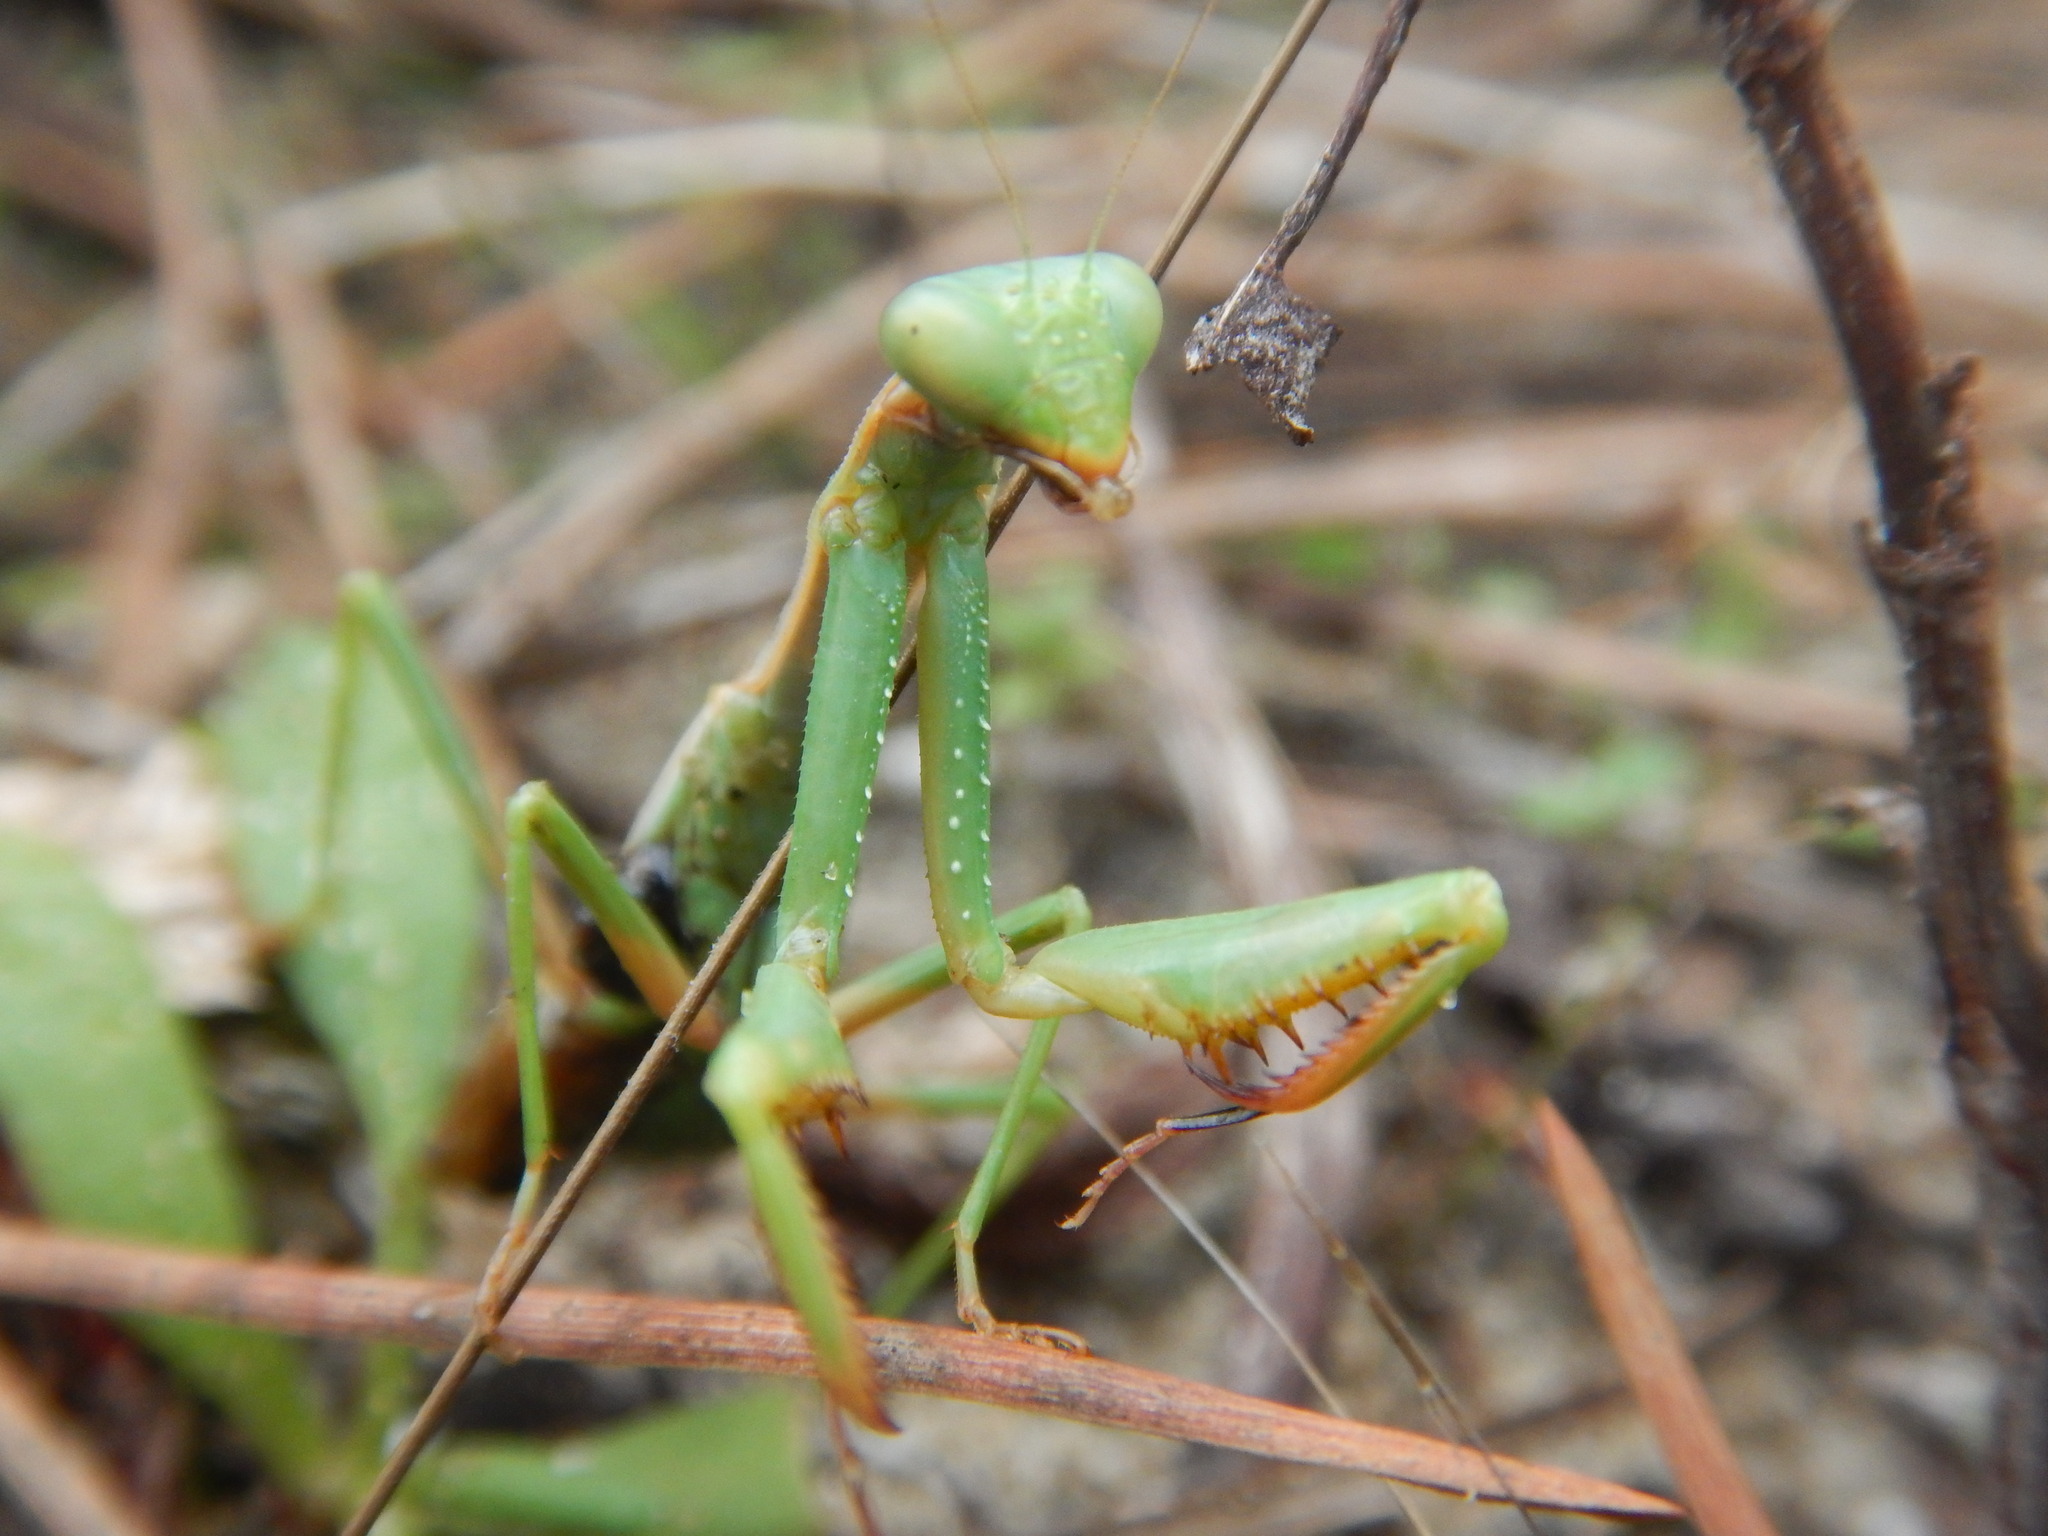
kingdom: Animalia
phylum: Arthropoda
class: Insecta
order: Mantodea
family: Eremiaphilidae
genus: Iris
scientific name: Iris oratoria
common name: Mediterranean mantis
